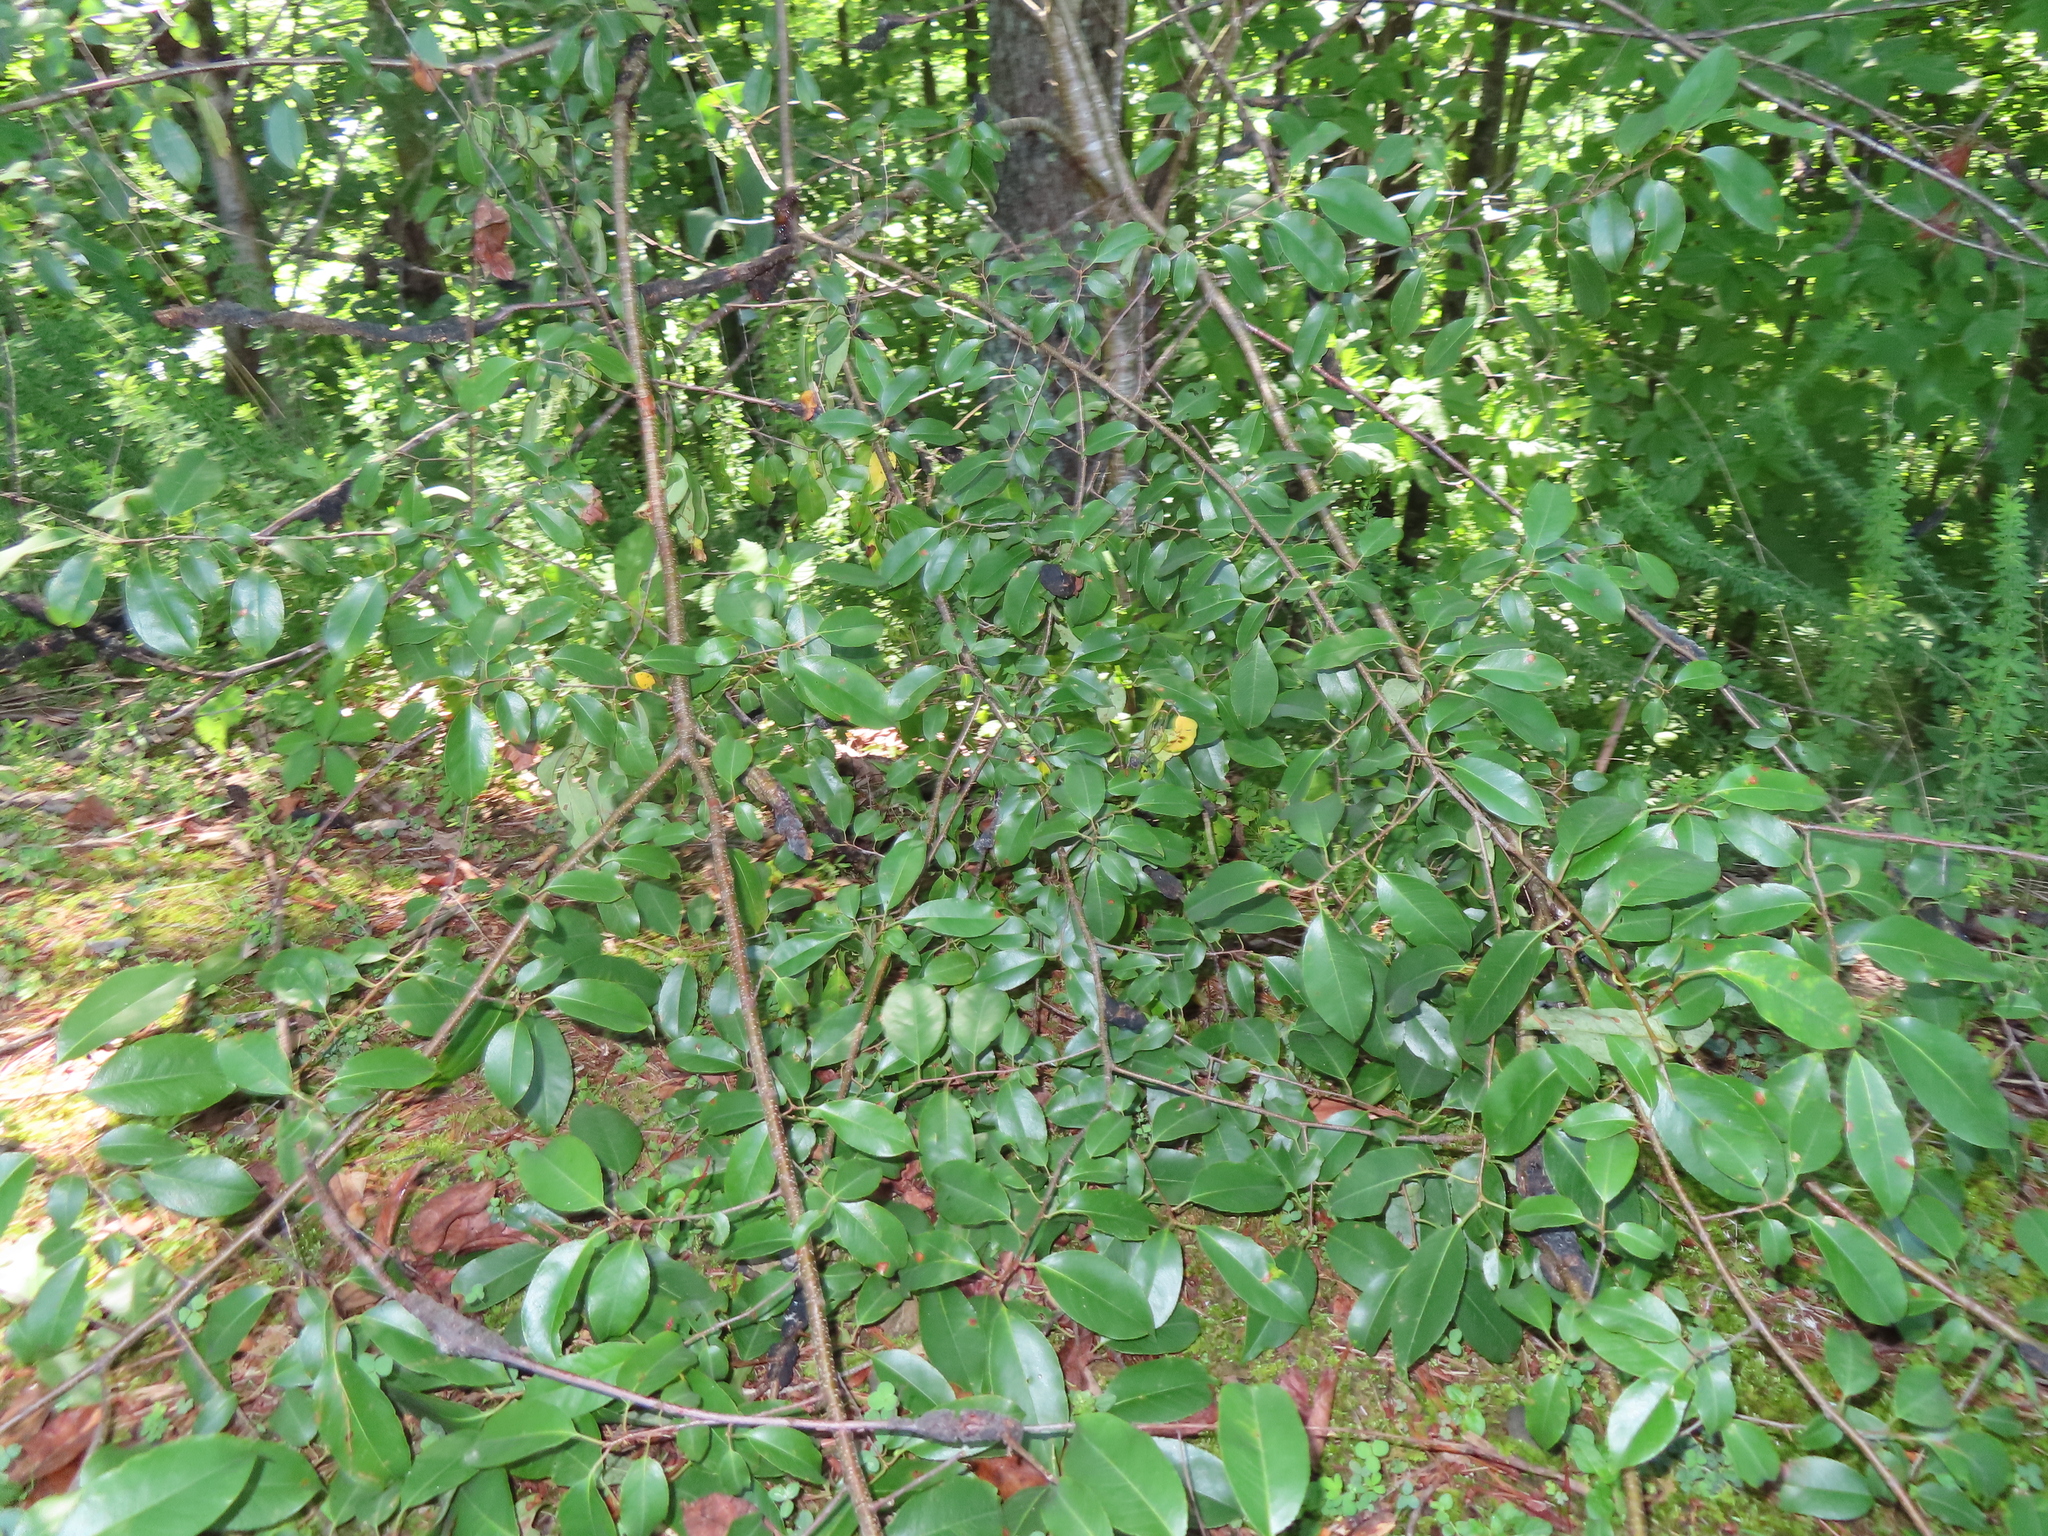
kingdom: Fungi
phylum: Ascomycota
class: Dothideomycetes
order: Venturiales
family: Venturiaceae
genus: Apiosporina
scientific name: Apiosporina morbosa
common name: Black knot
